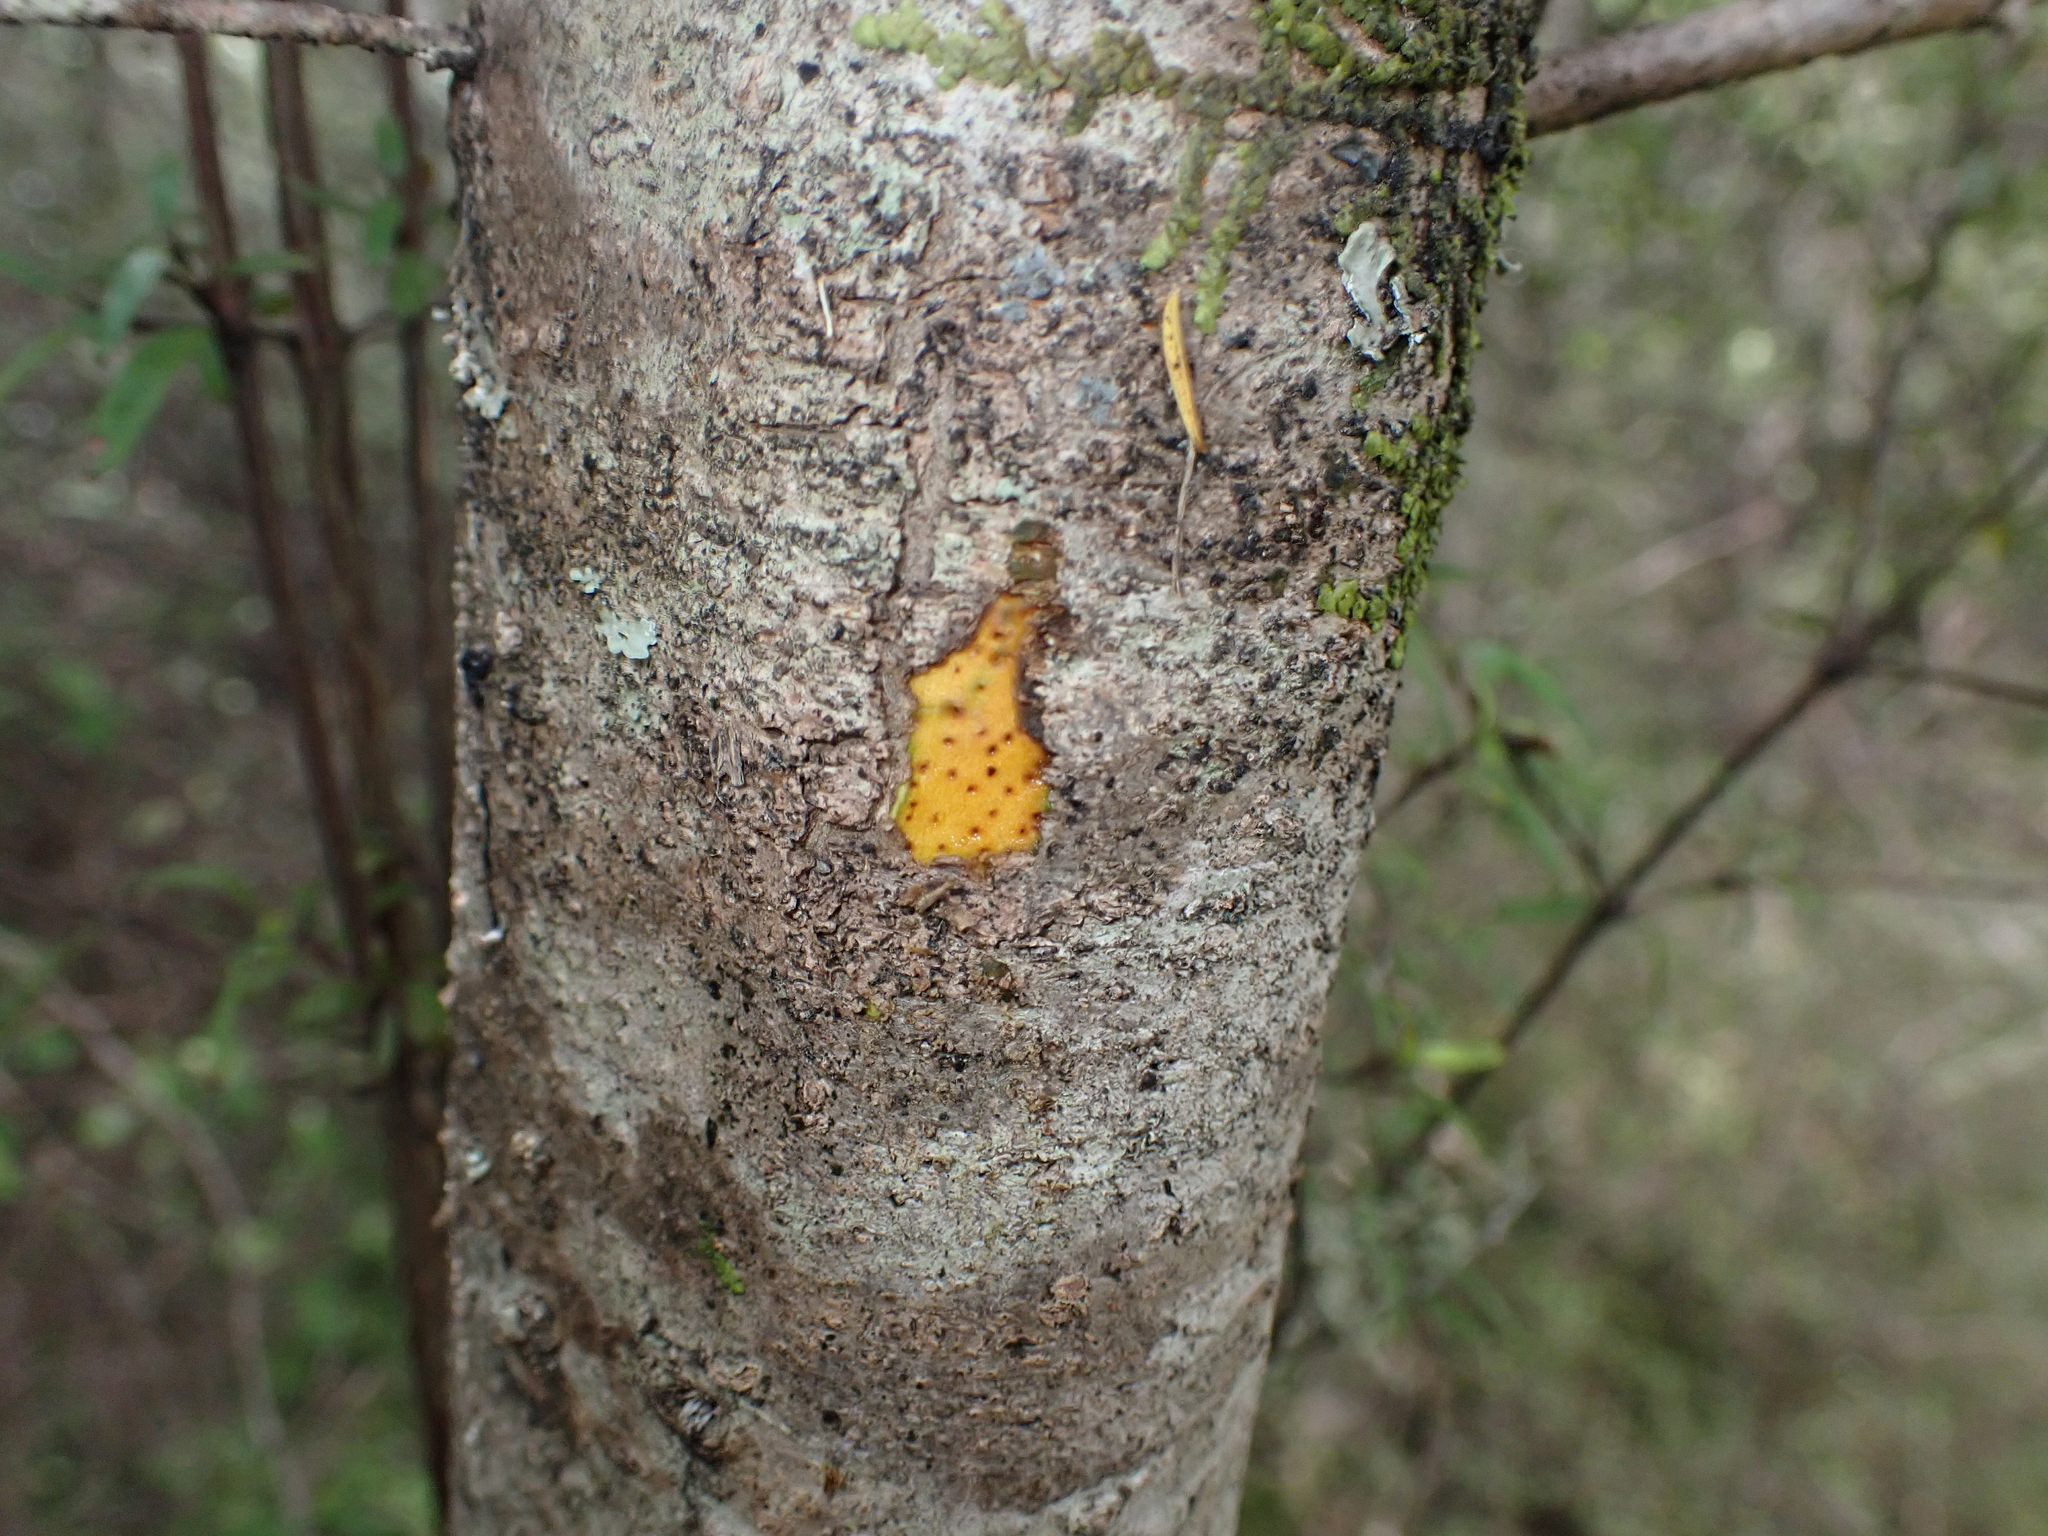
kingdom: Plantae
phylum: Tracheophyta
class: Magnoliopsida
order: Gentianales
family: Rubiaceae
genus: Coprosma
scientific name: Coprosma linariifolia
